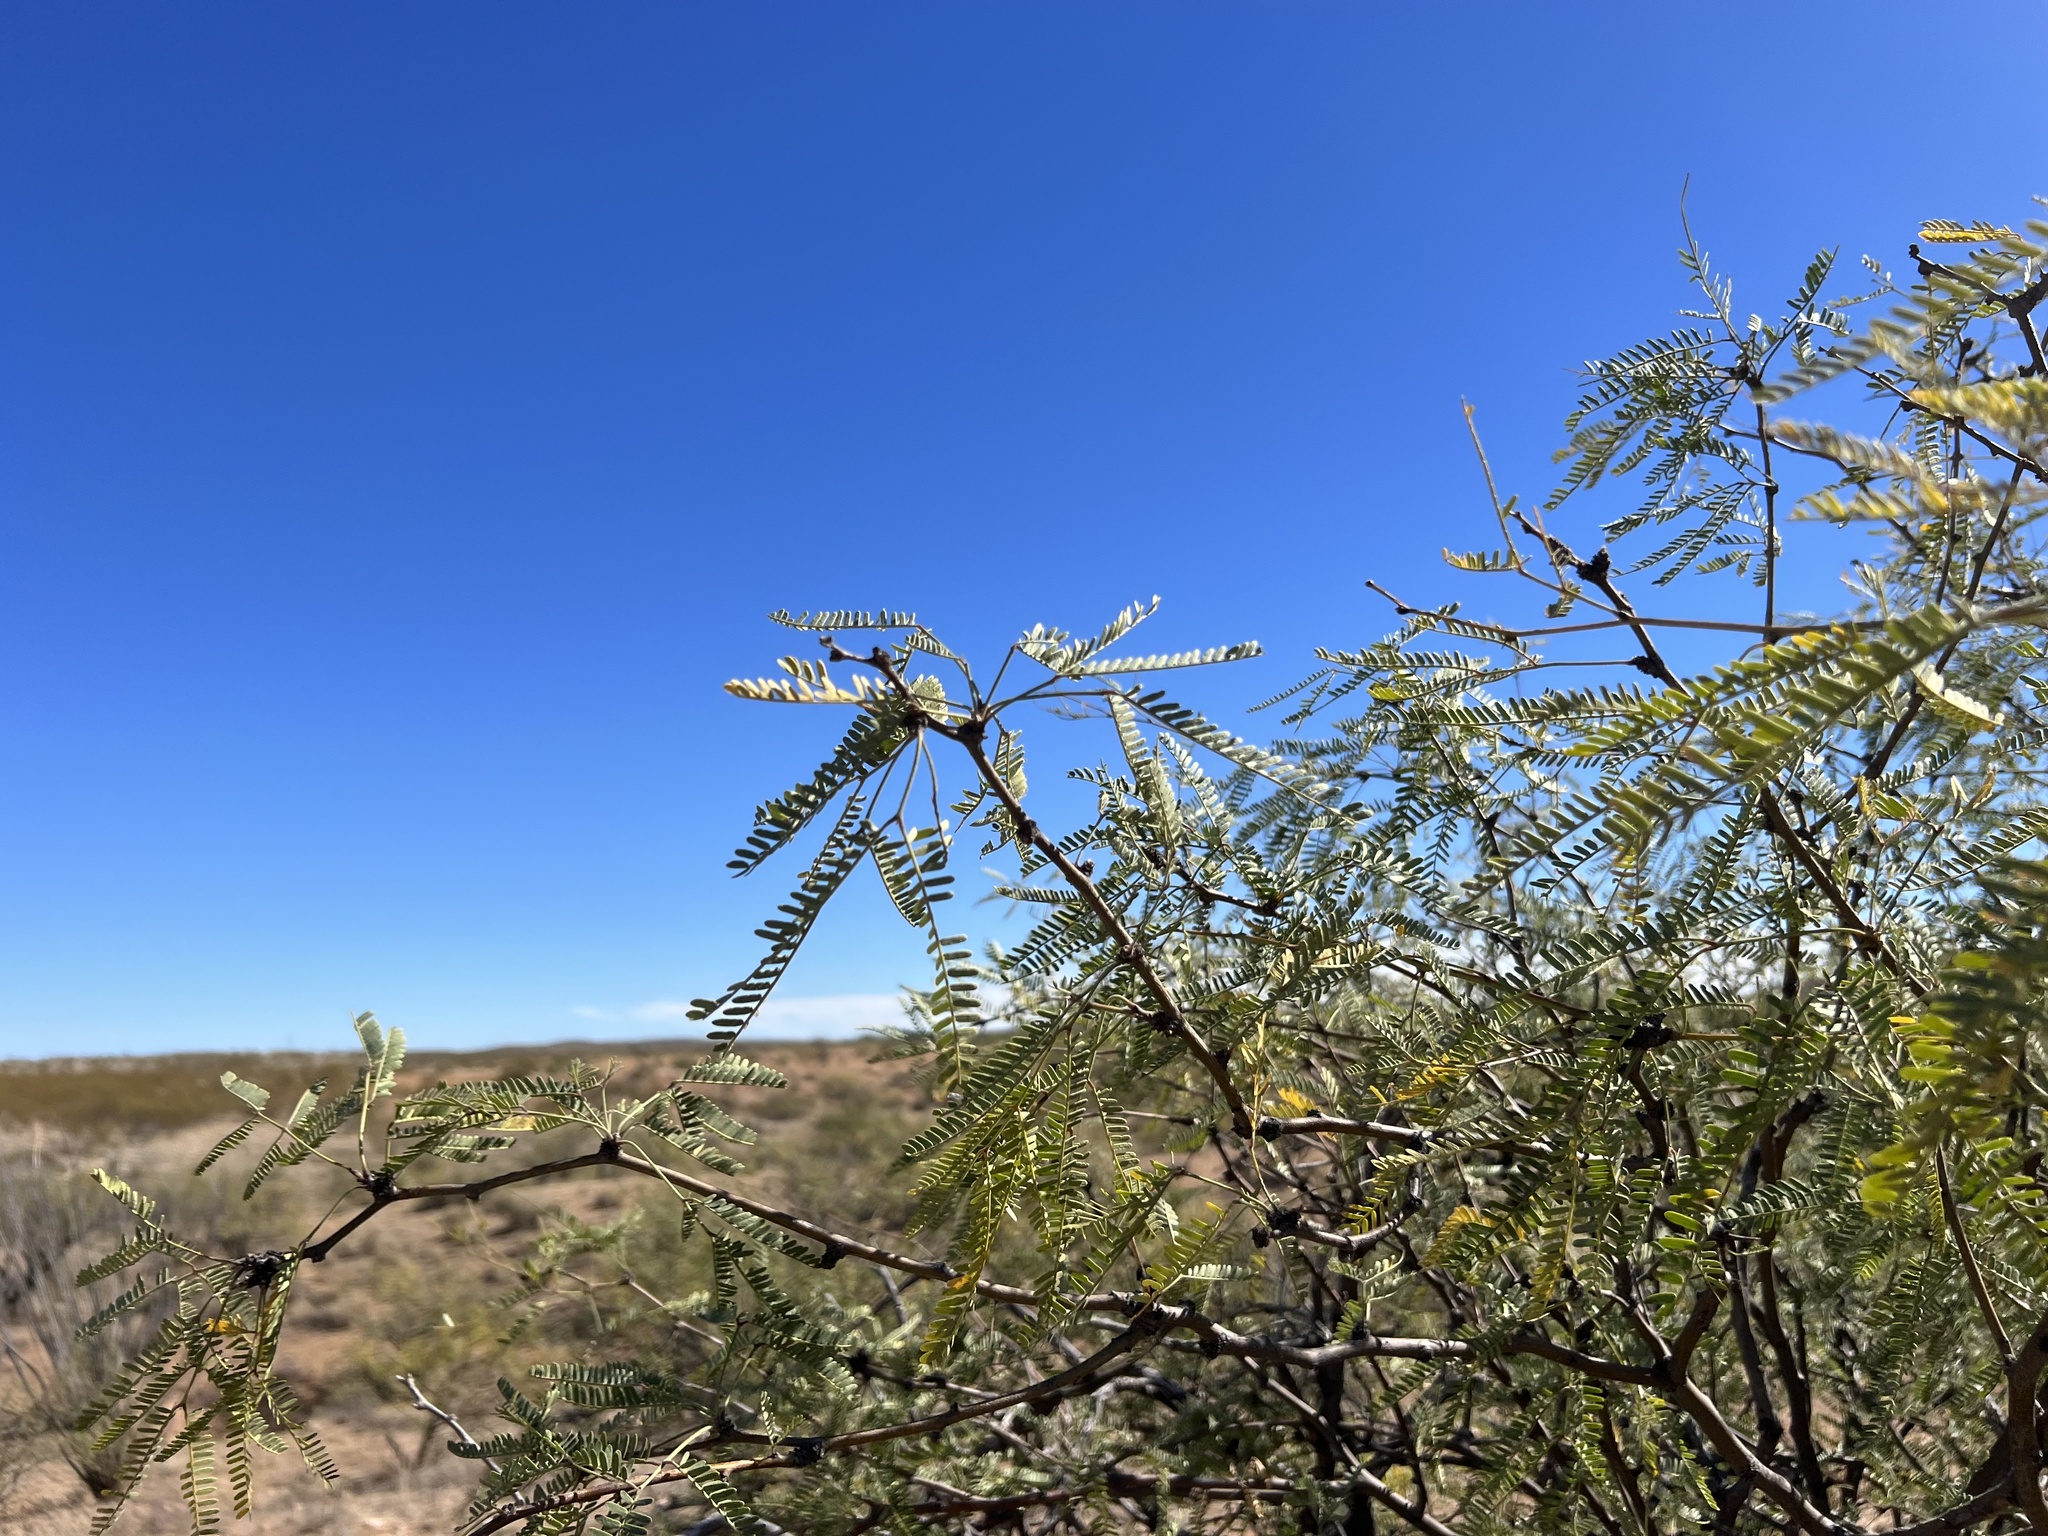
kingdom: Plantae
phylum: Tracheophyta
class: Magnoliopsida
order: Fabales
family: Fabaceae
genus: Prosopis
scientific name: Prosopis velutina
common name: Velvet mesquite
